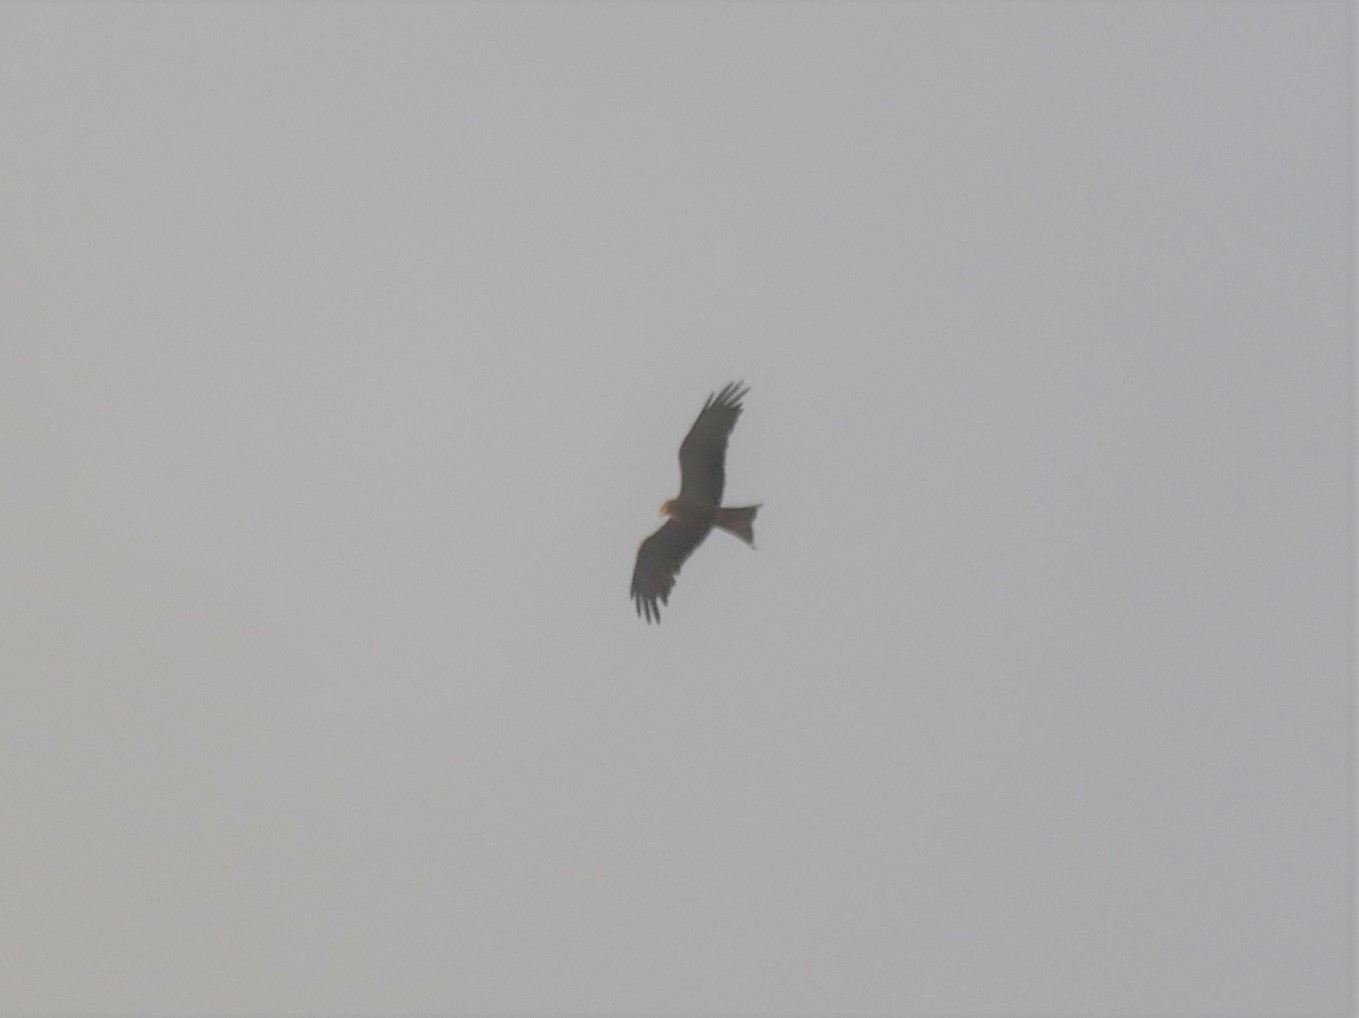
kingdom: Animalia
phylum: Chordata
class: Aves
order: Accipitriformes
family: Accipitridae
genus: Milvus
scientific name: Milvus migrans
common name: Black kite
